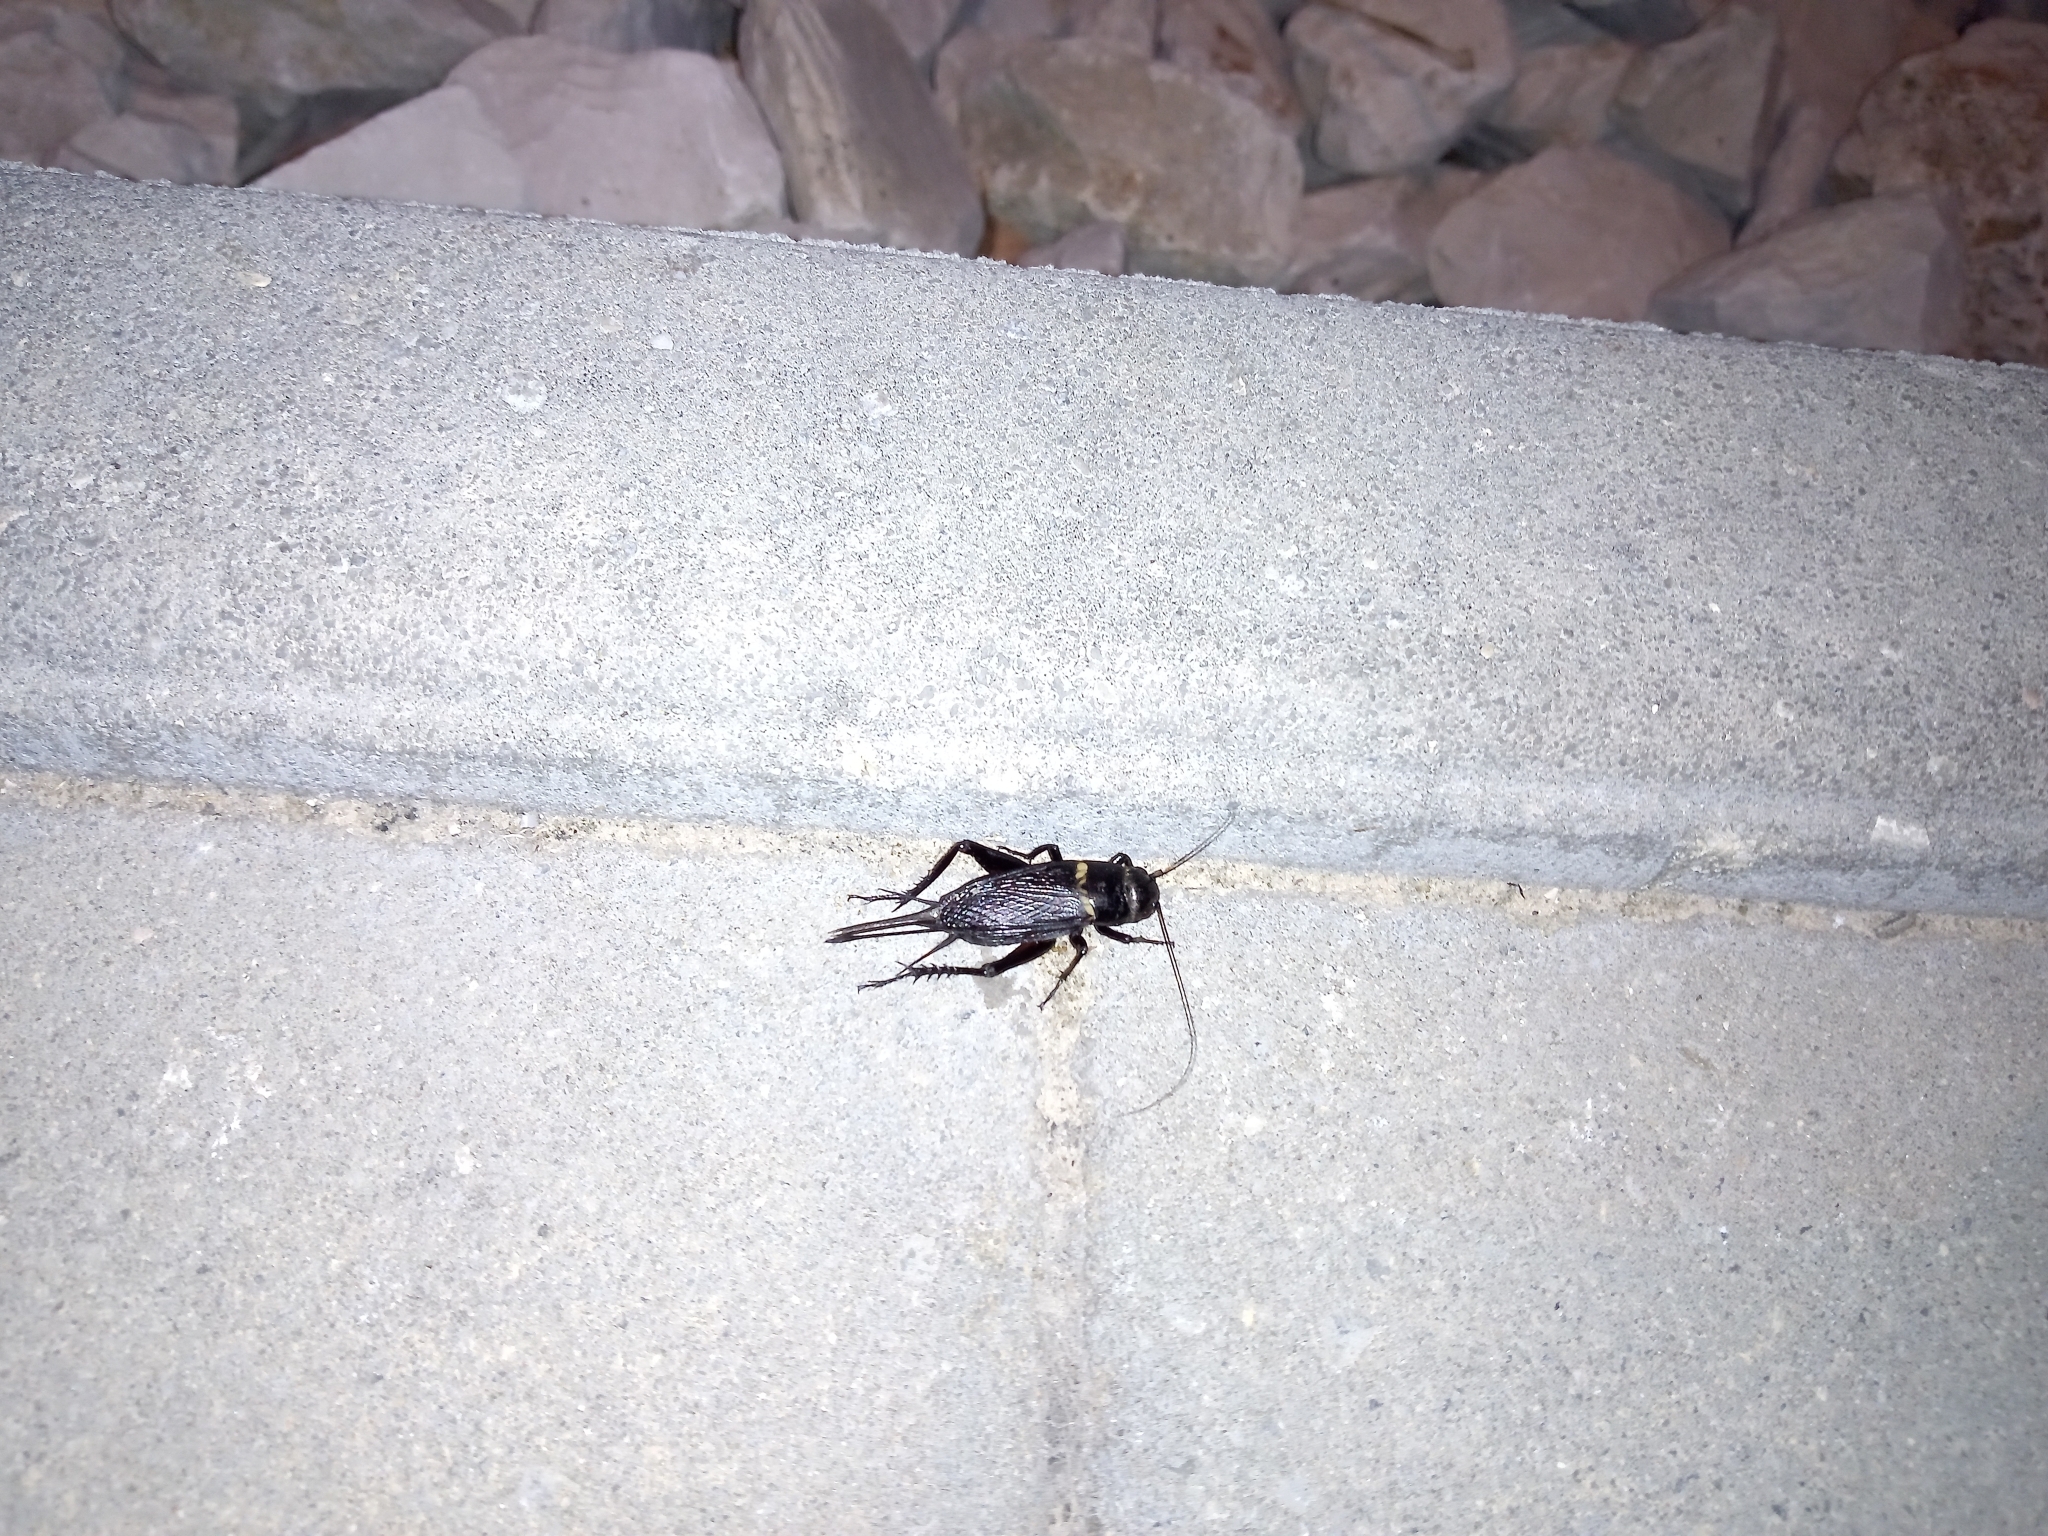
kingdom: Animalia
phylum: Arthropoda
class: Insecta
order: Orthoptera
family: Gryllidae
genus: Gryllus
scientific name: Gryllus bimaculatus
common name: Two-spotted cricket
